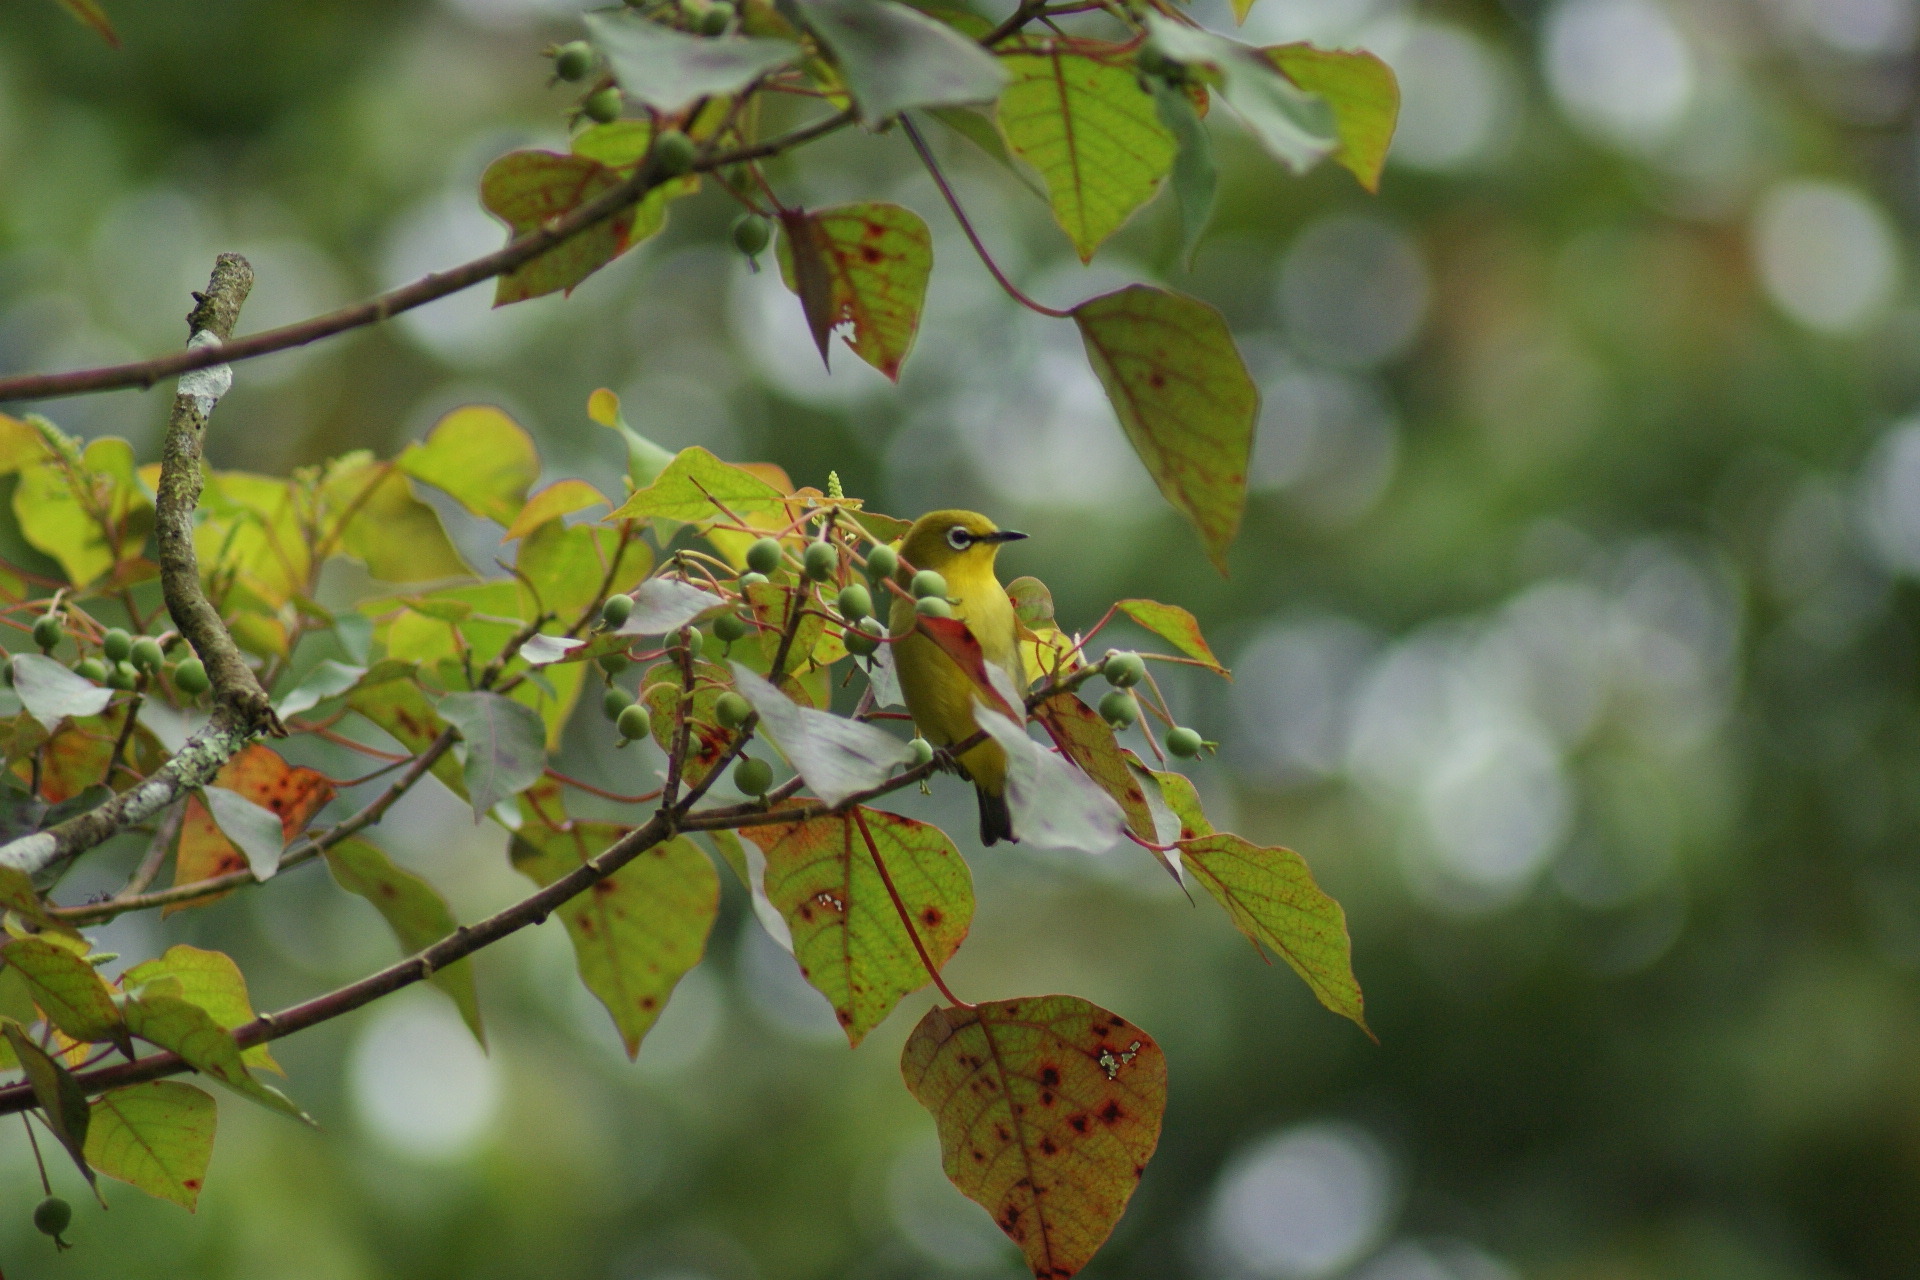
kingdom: Animalia
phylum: Chordata
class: Aves
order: Passeriformes
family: Zosteropidae
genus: Zosterops
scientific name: Zosterops melanurus
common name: Sangkar white-eye
